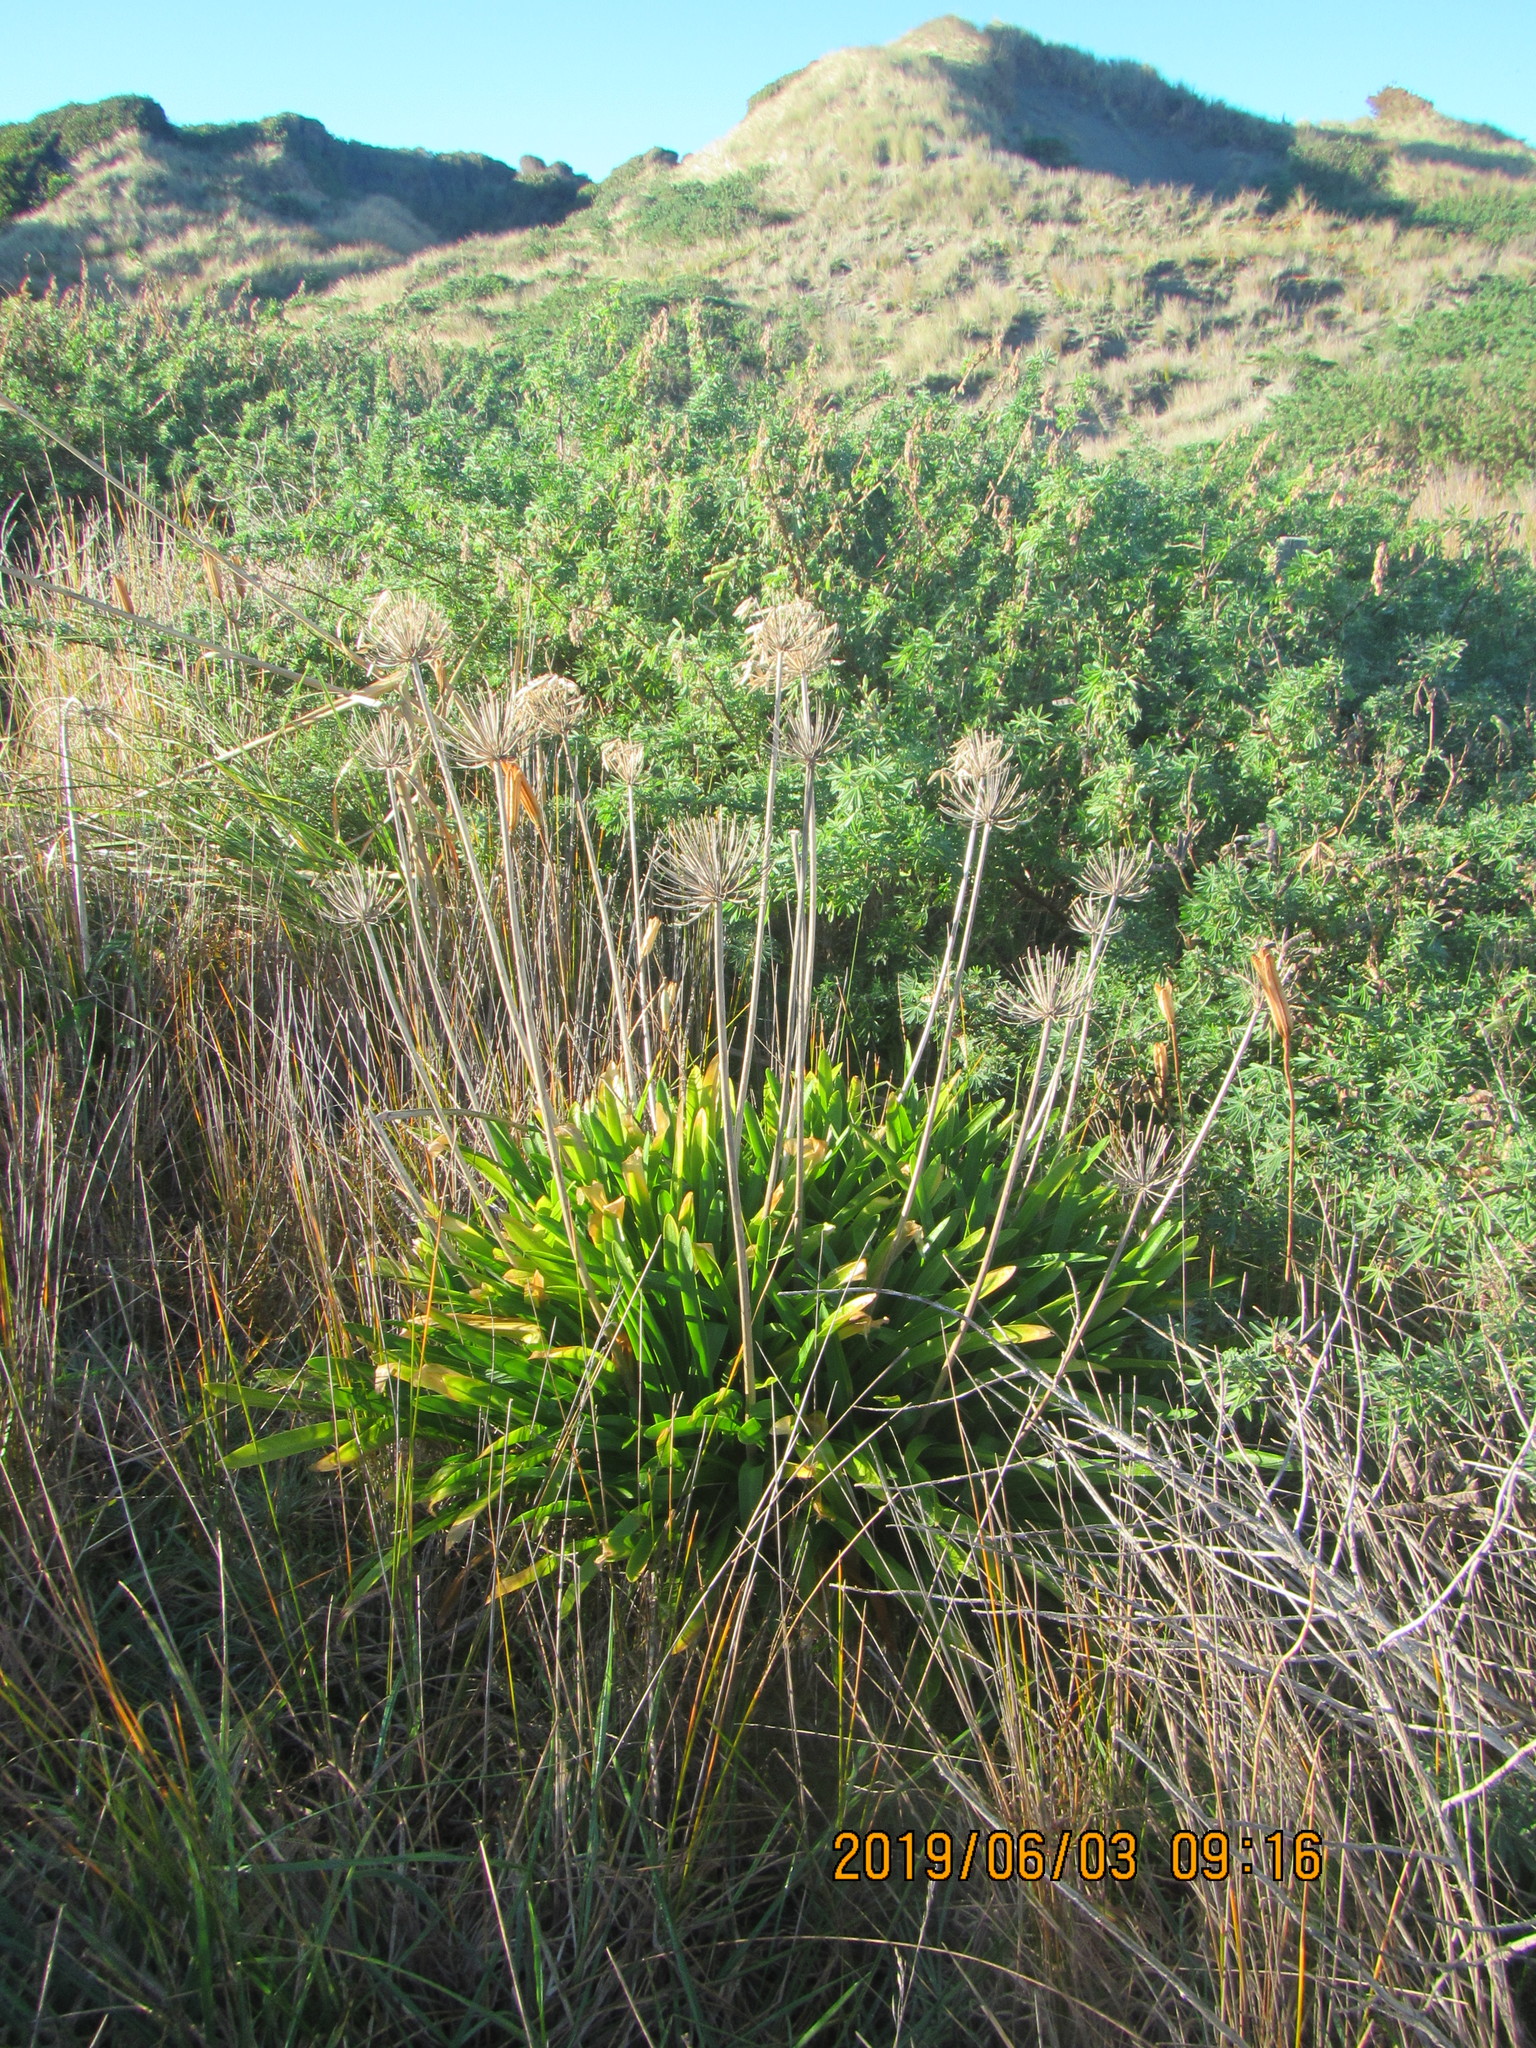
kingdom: Plantae
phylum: Tracheophyta
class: Liliopsida
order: Asparagales
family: Amaryllidaceae
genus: Agapanthus
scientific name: Agapanthus praecox
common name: African-lily
